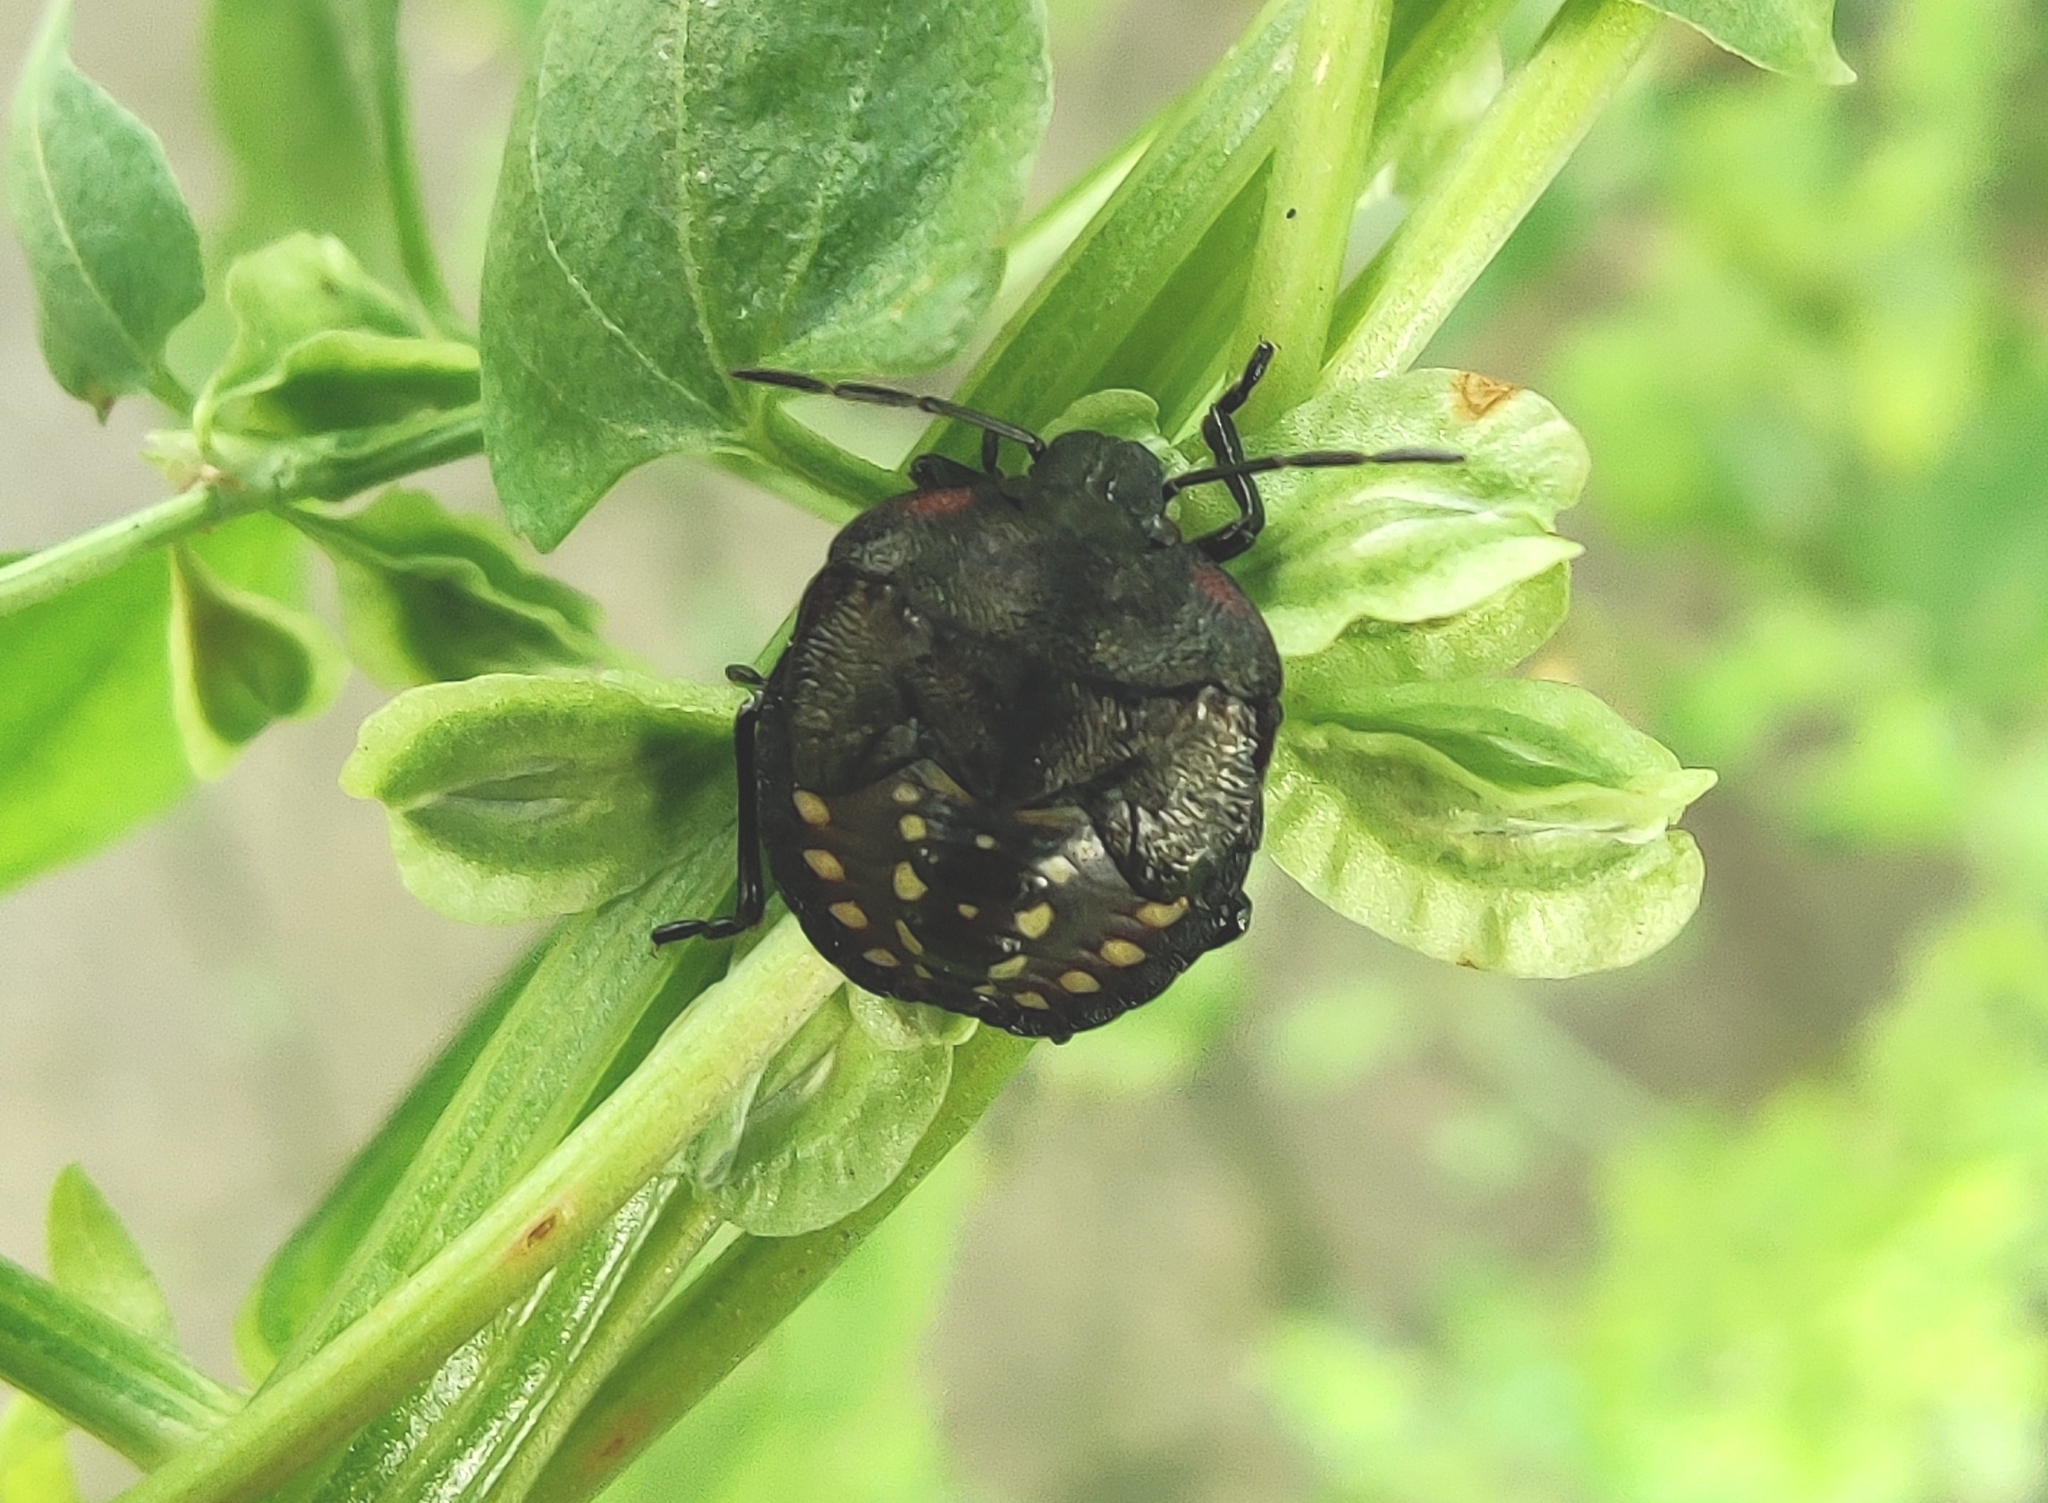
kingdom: Animalia
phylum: Arthropoda
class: Insecta
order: Hemiptera
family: Pentatomidae
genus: Nezara
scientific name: Nezara viridula
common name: Southern green stink bug
